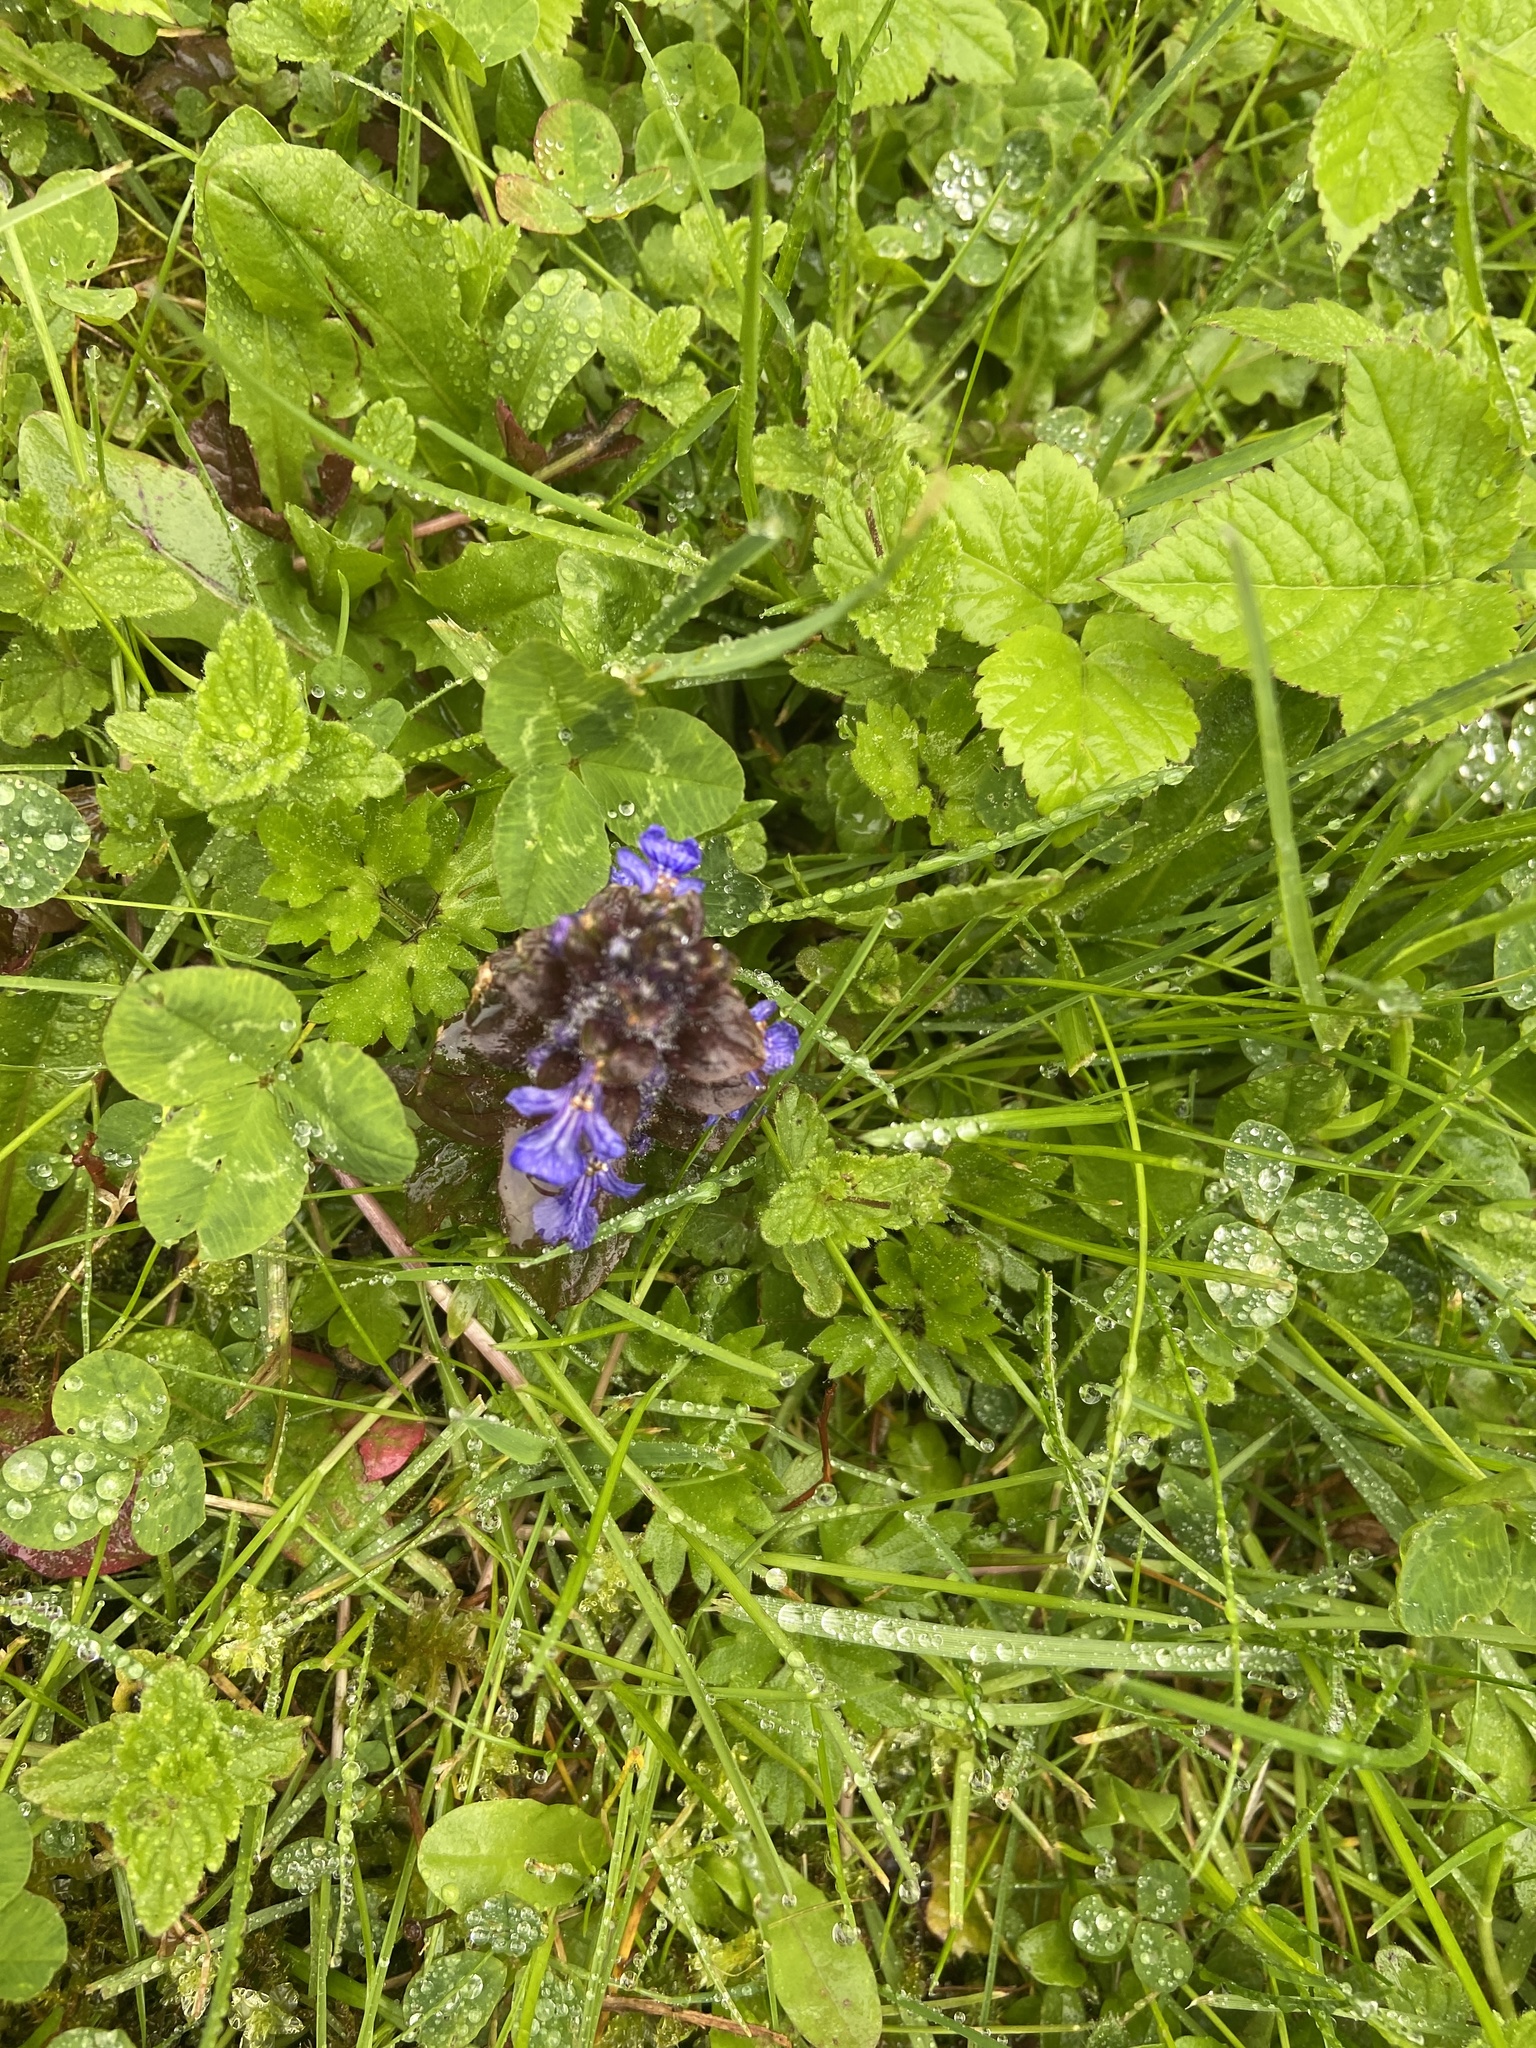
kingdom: Plantae
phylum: Tracheophyta
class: Magnoliopsida
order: Lamiales
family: Lamiaceae
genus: Ajuga
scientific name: Ajuga reptans
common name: Bugle
